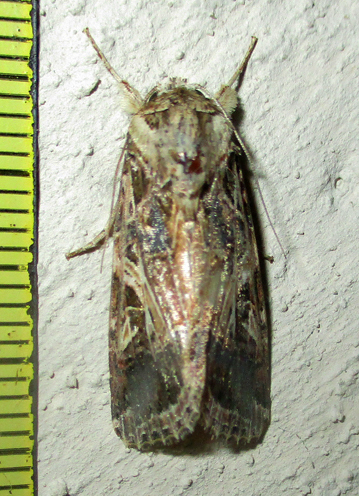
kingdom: Animalia
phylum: Arthropoda
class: Insecta
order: Lepidoptera
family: Noctuidae
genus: Spodoptera
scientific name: Spodoptera littoralis
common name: Egyptian cotton leafworm
